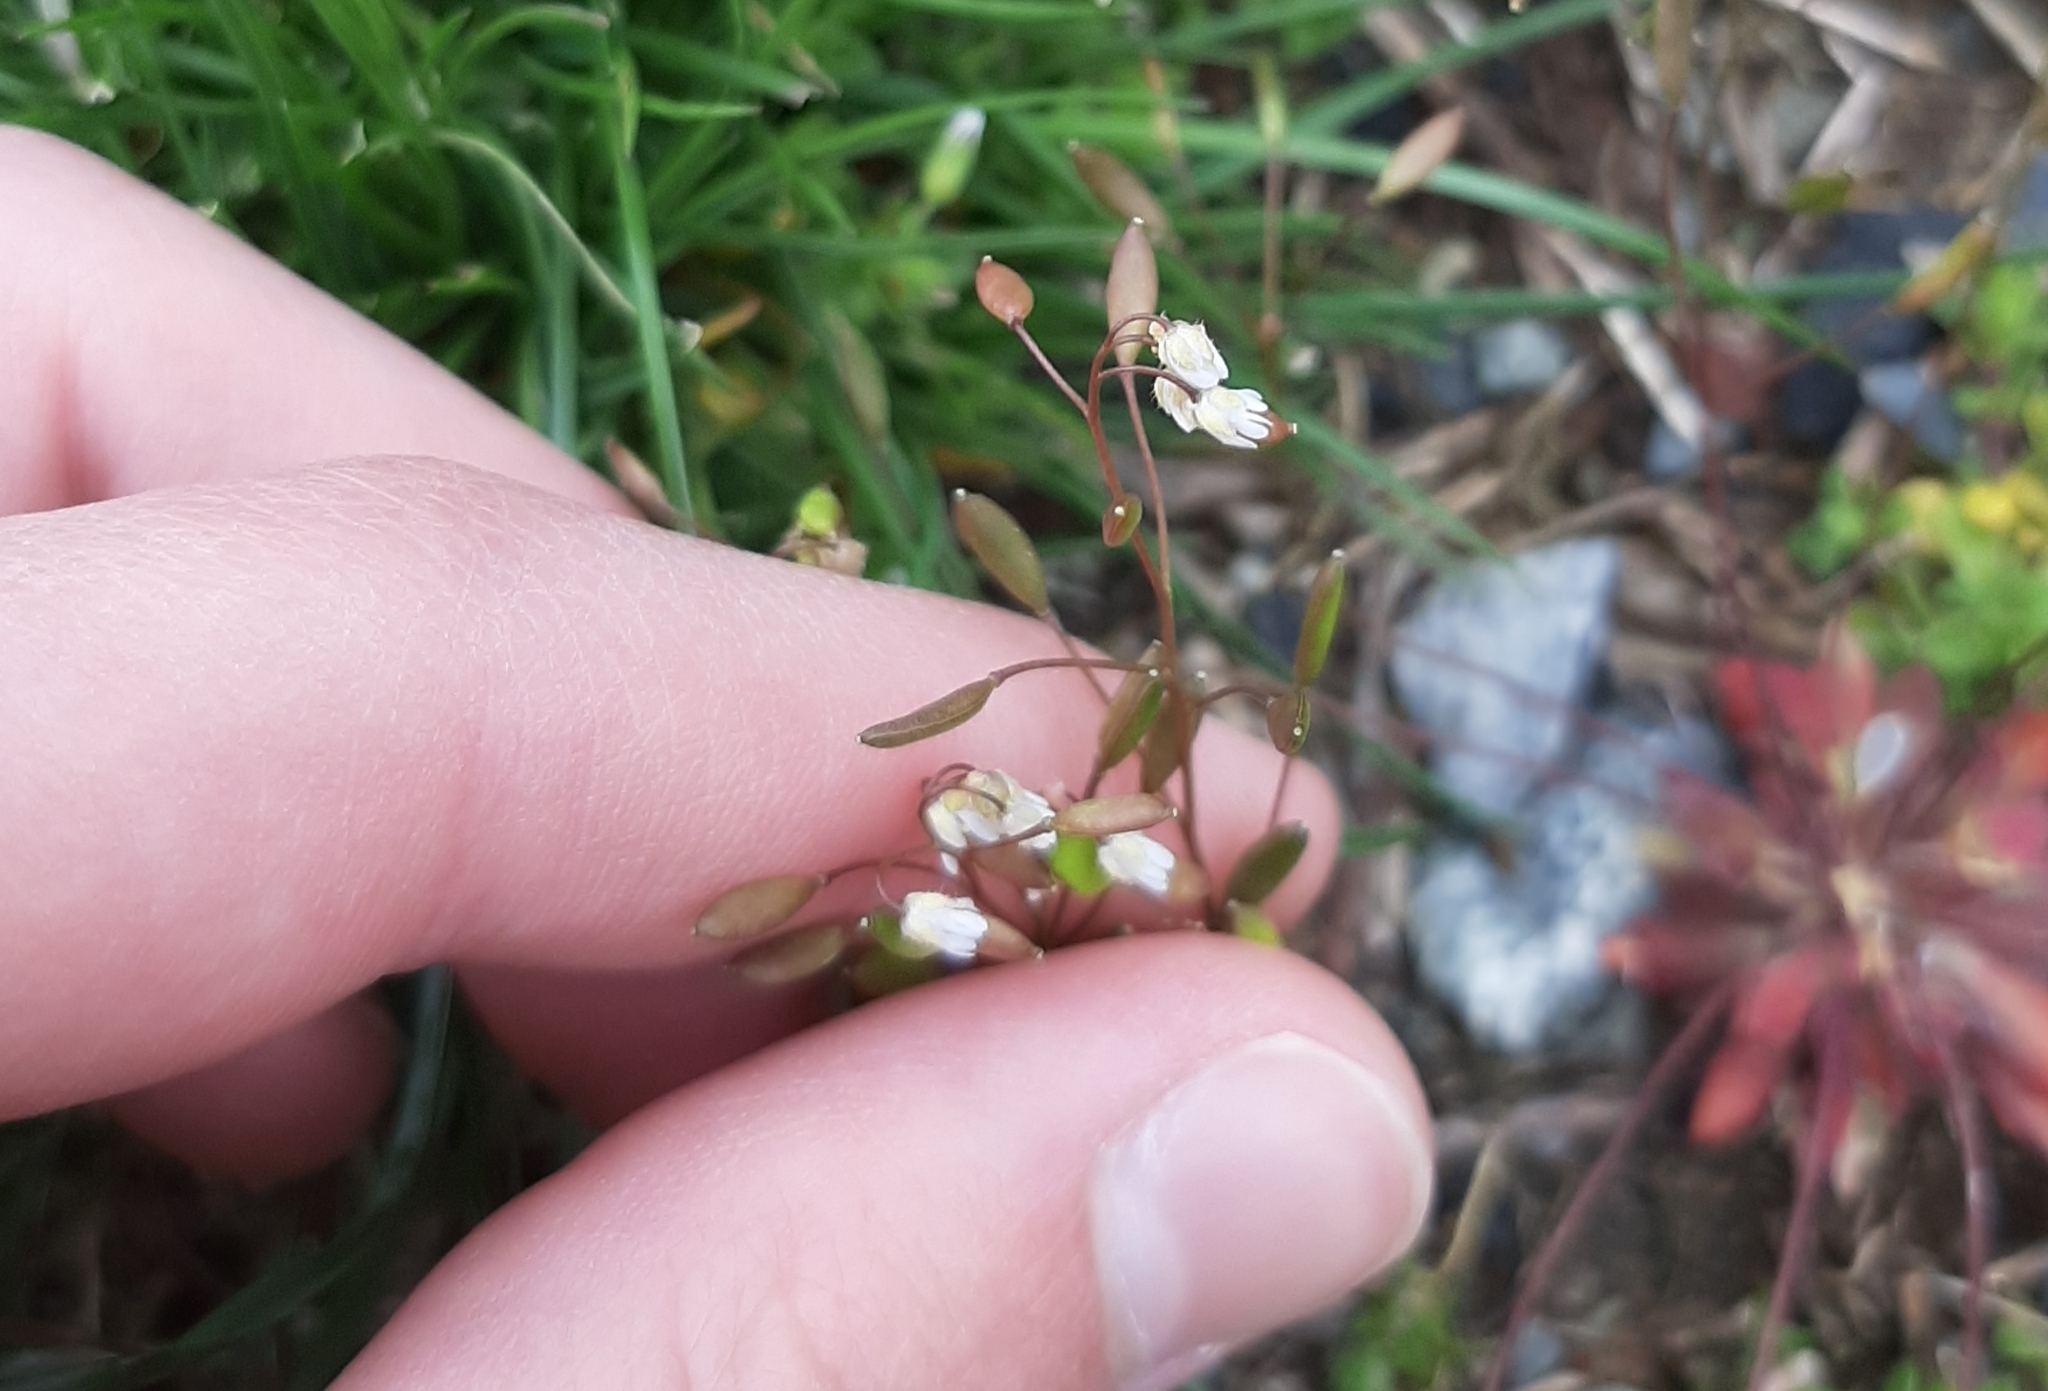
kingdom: Plantae
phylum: Tracheophyta
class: Magnoliopsida
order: Brassicales
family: Brassicaceae
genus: Draba
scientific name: Draba verna
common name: Spring draba
